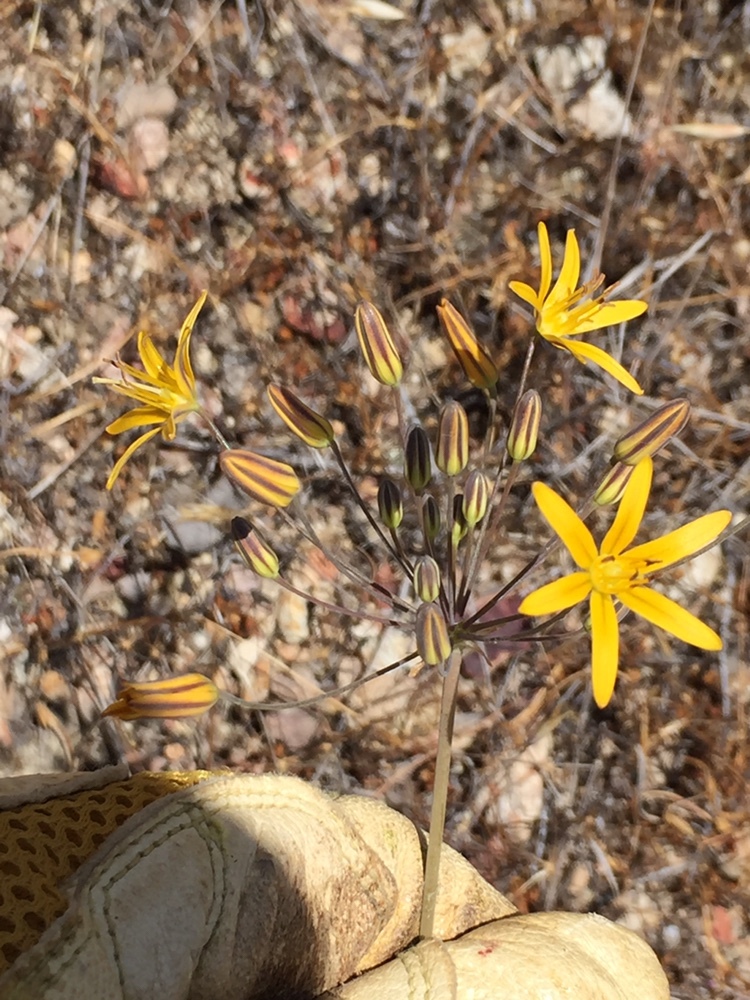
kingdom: Plantae
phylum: Tracheophyta
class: Liliopsida
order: Asparagales
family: Asparagaceae
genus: Bloomeria
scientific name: Bloomeria crocea
